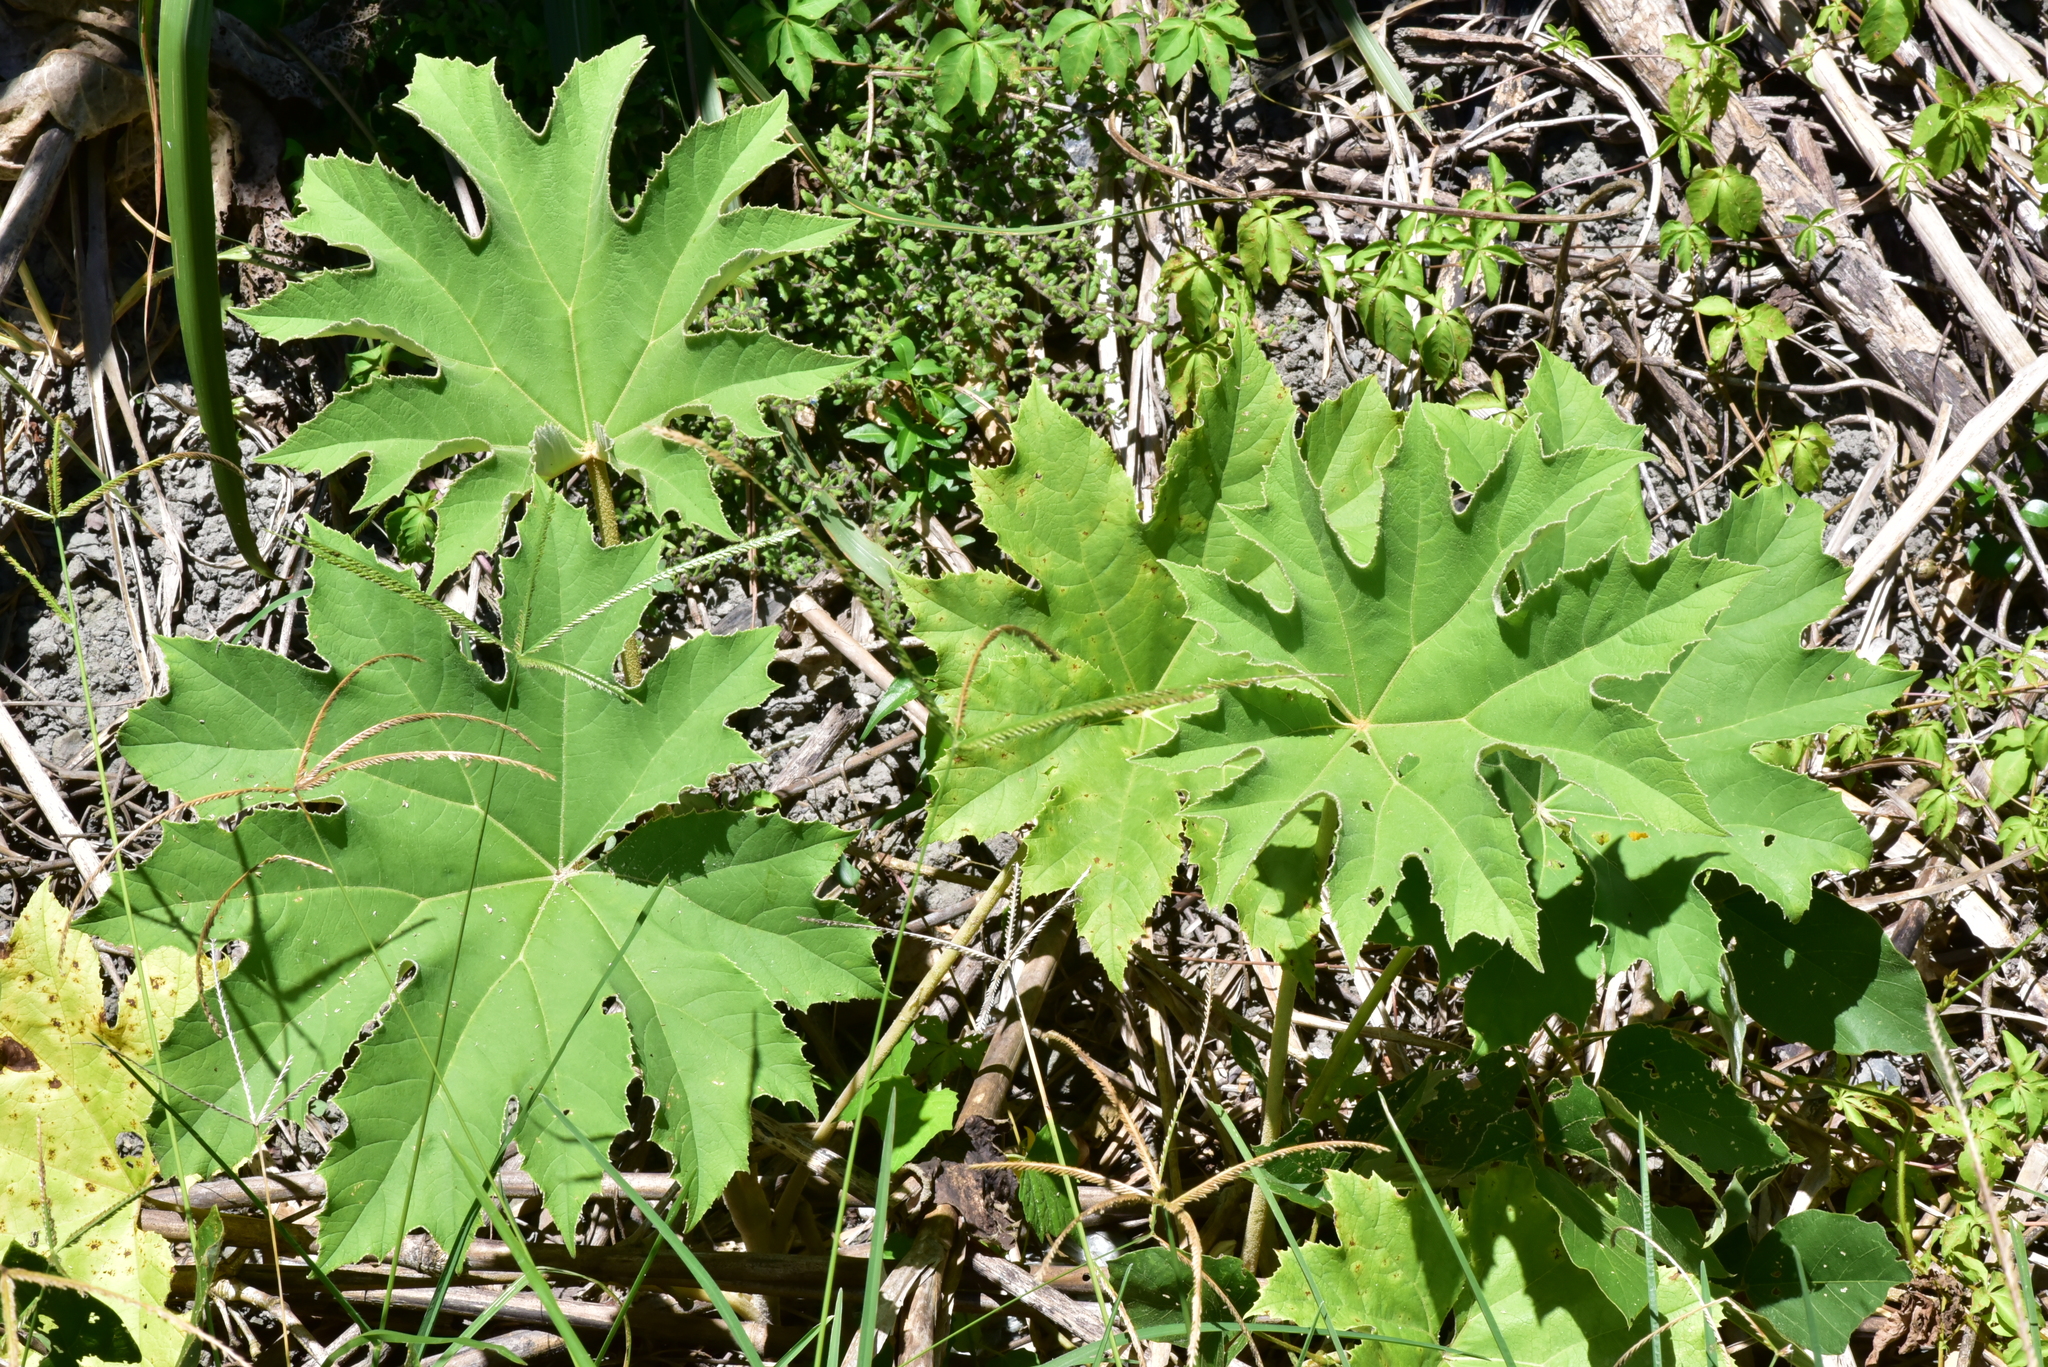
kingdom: Plantae
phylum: Tracheophyta
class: Magnoliopsida
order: Apiales
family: Araliaceae
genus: Tetrapanax
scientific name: Tetrapanax papyrifer
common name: Rice-paper plant
